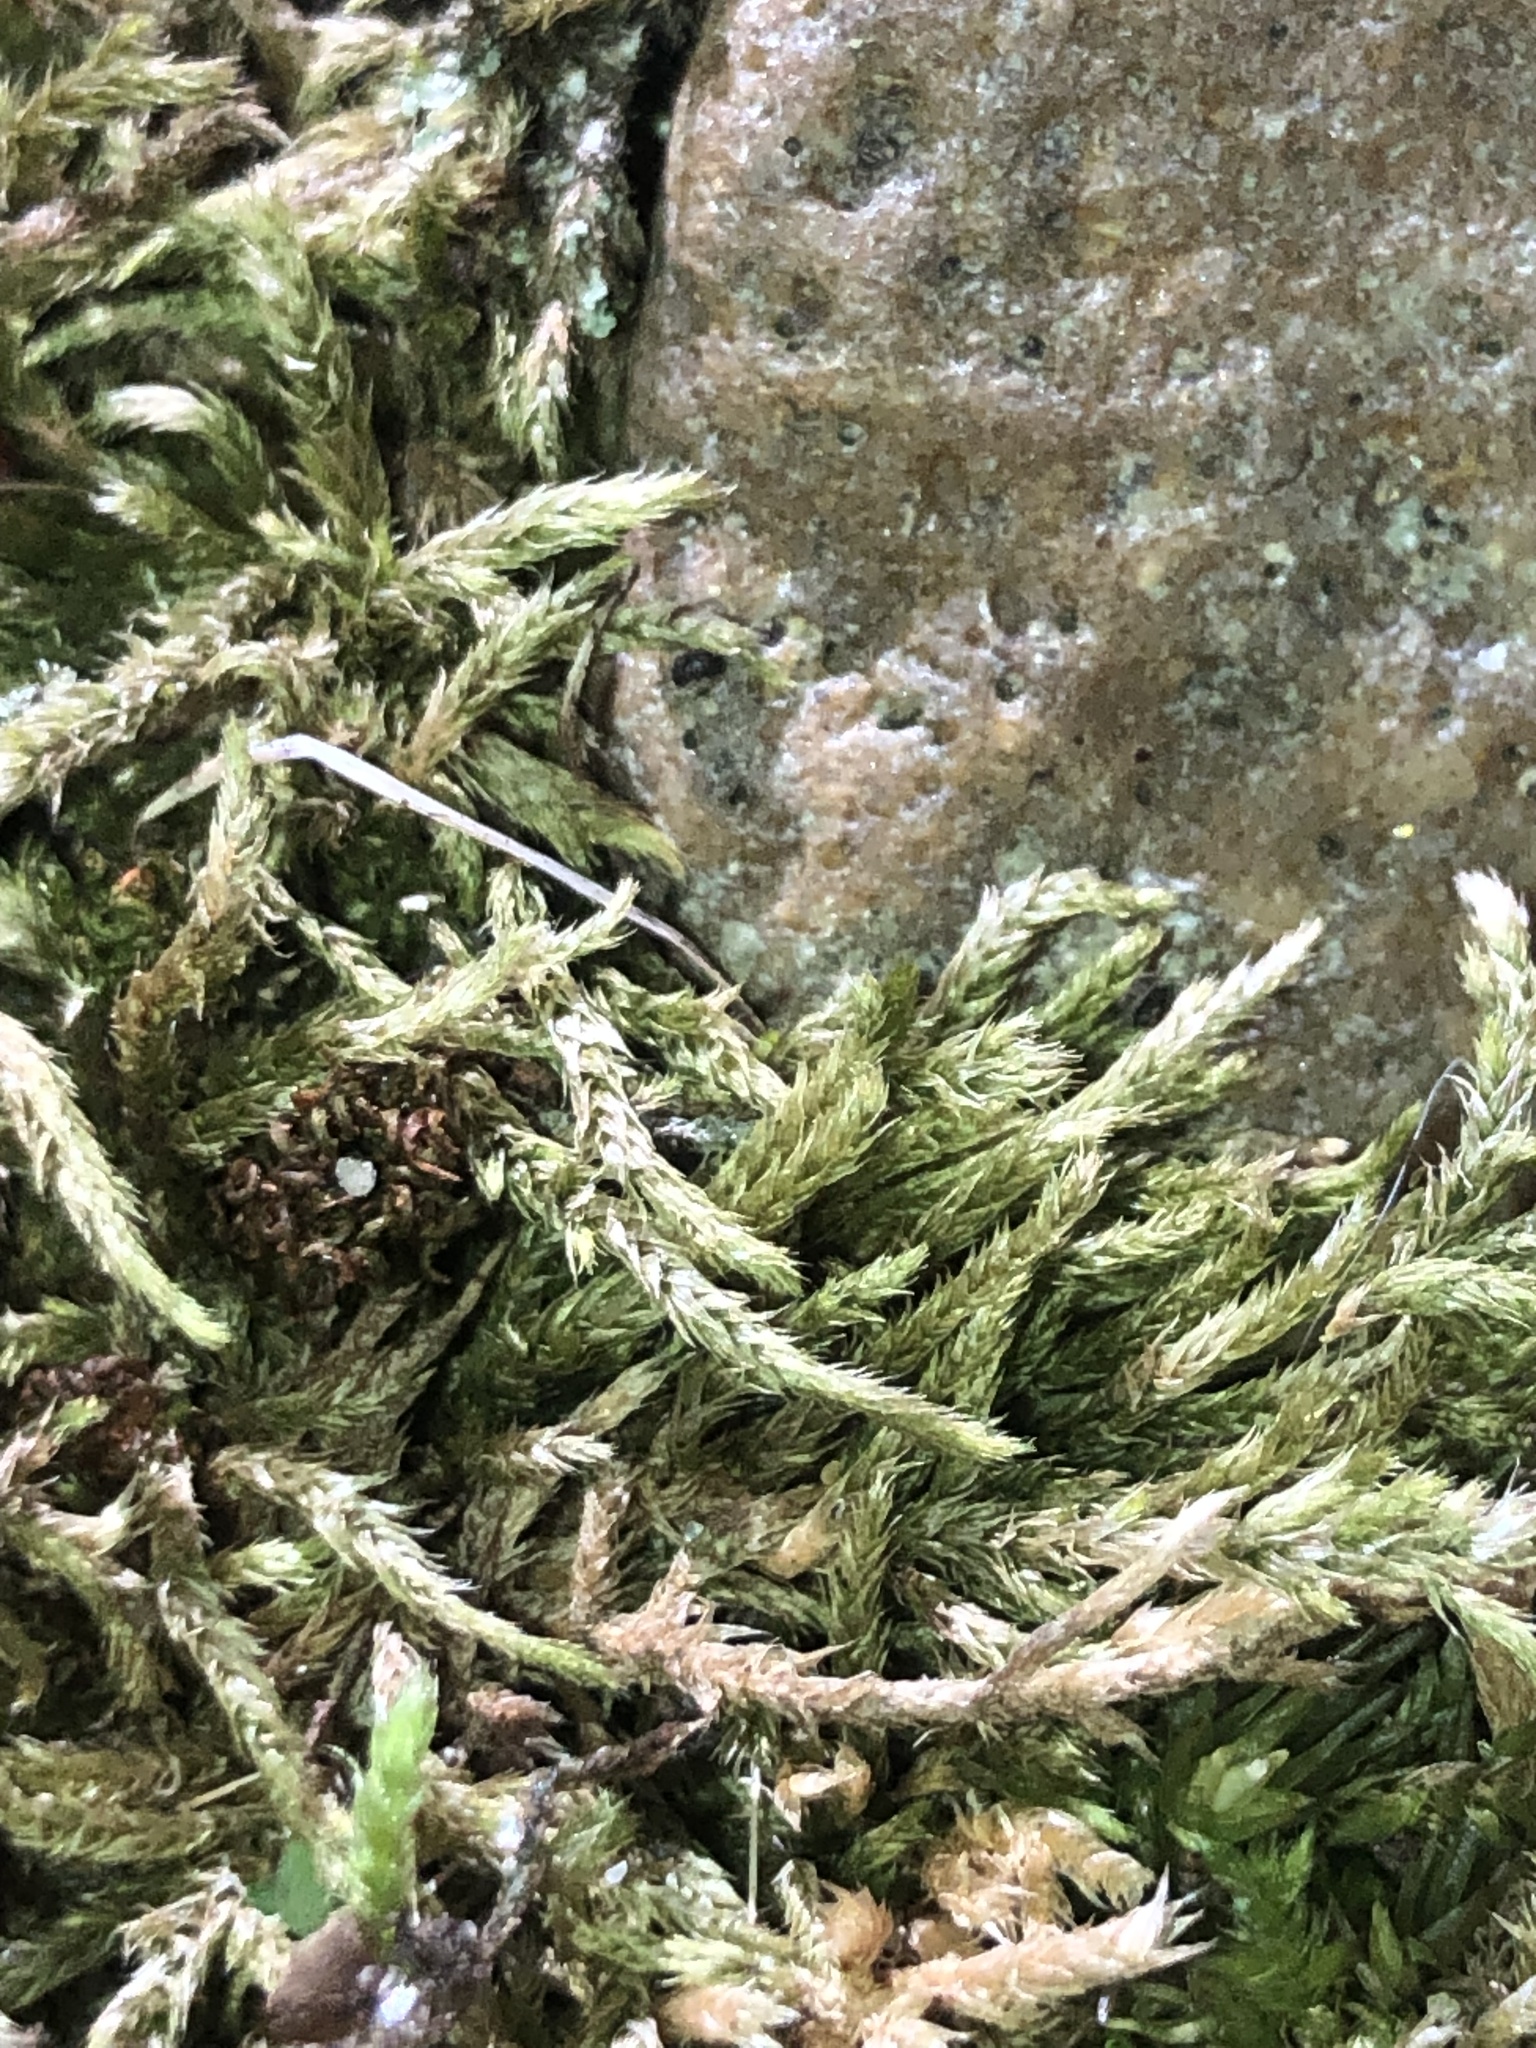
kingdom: Plantae
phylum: Bryophyta
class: Bryopsida
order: Hypnales
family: Brachytheciaceae
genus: Brachythecium
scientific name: Brachythecium laetum
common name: Bright ragged moss
